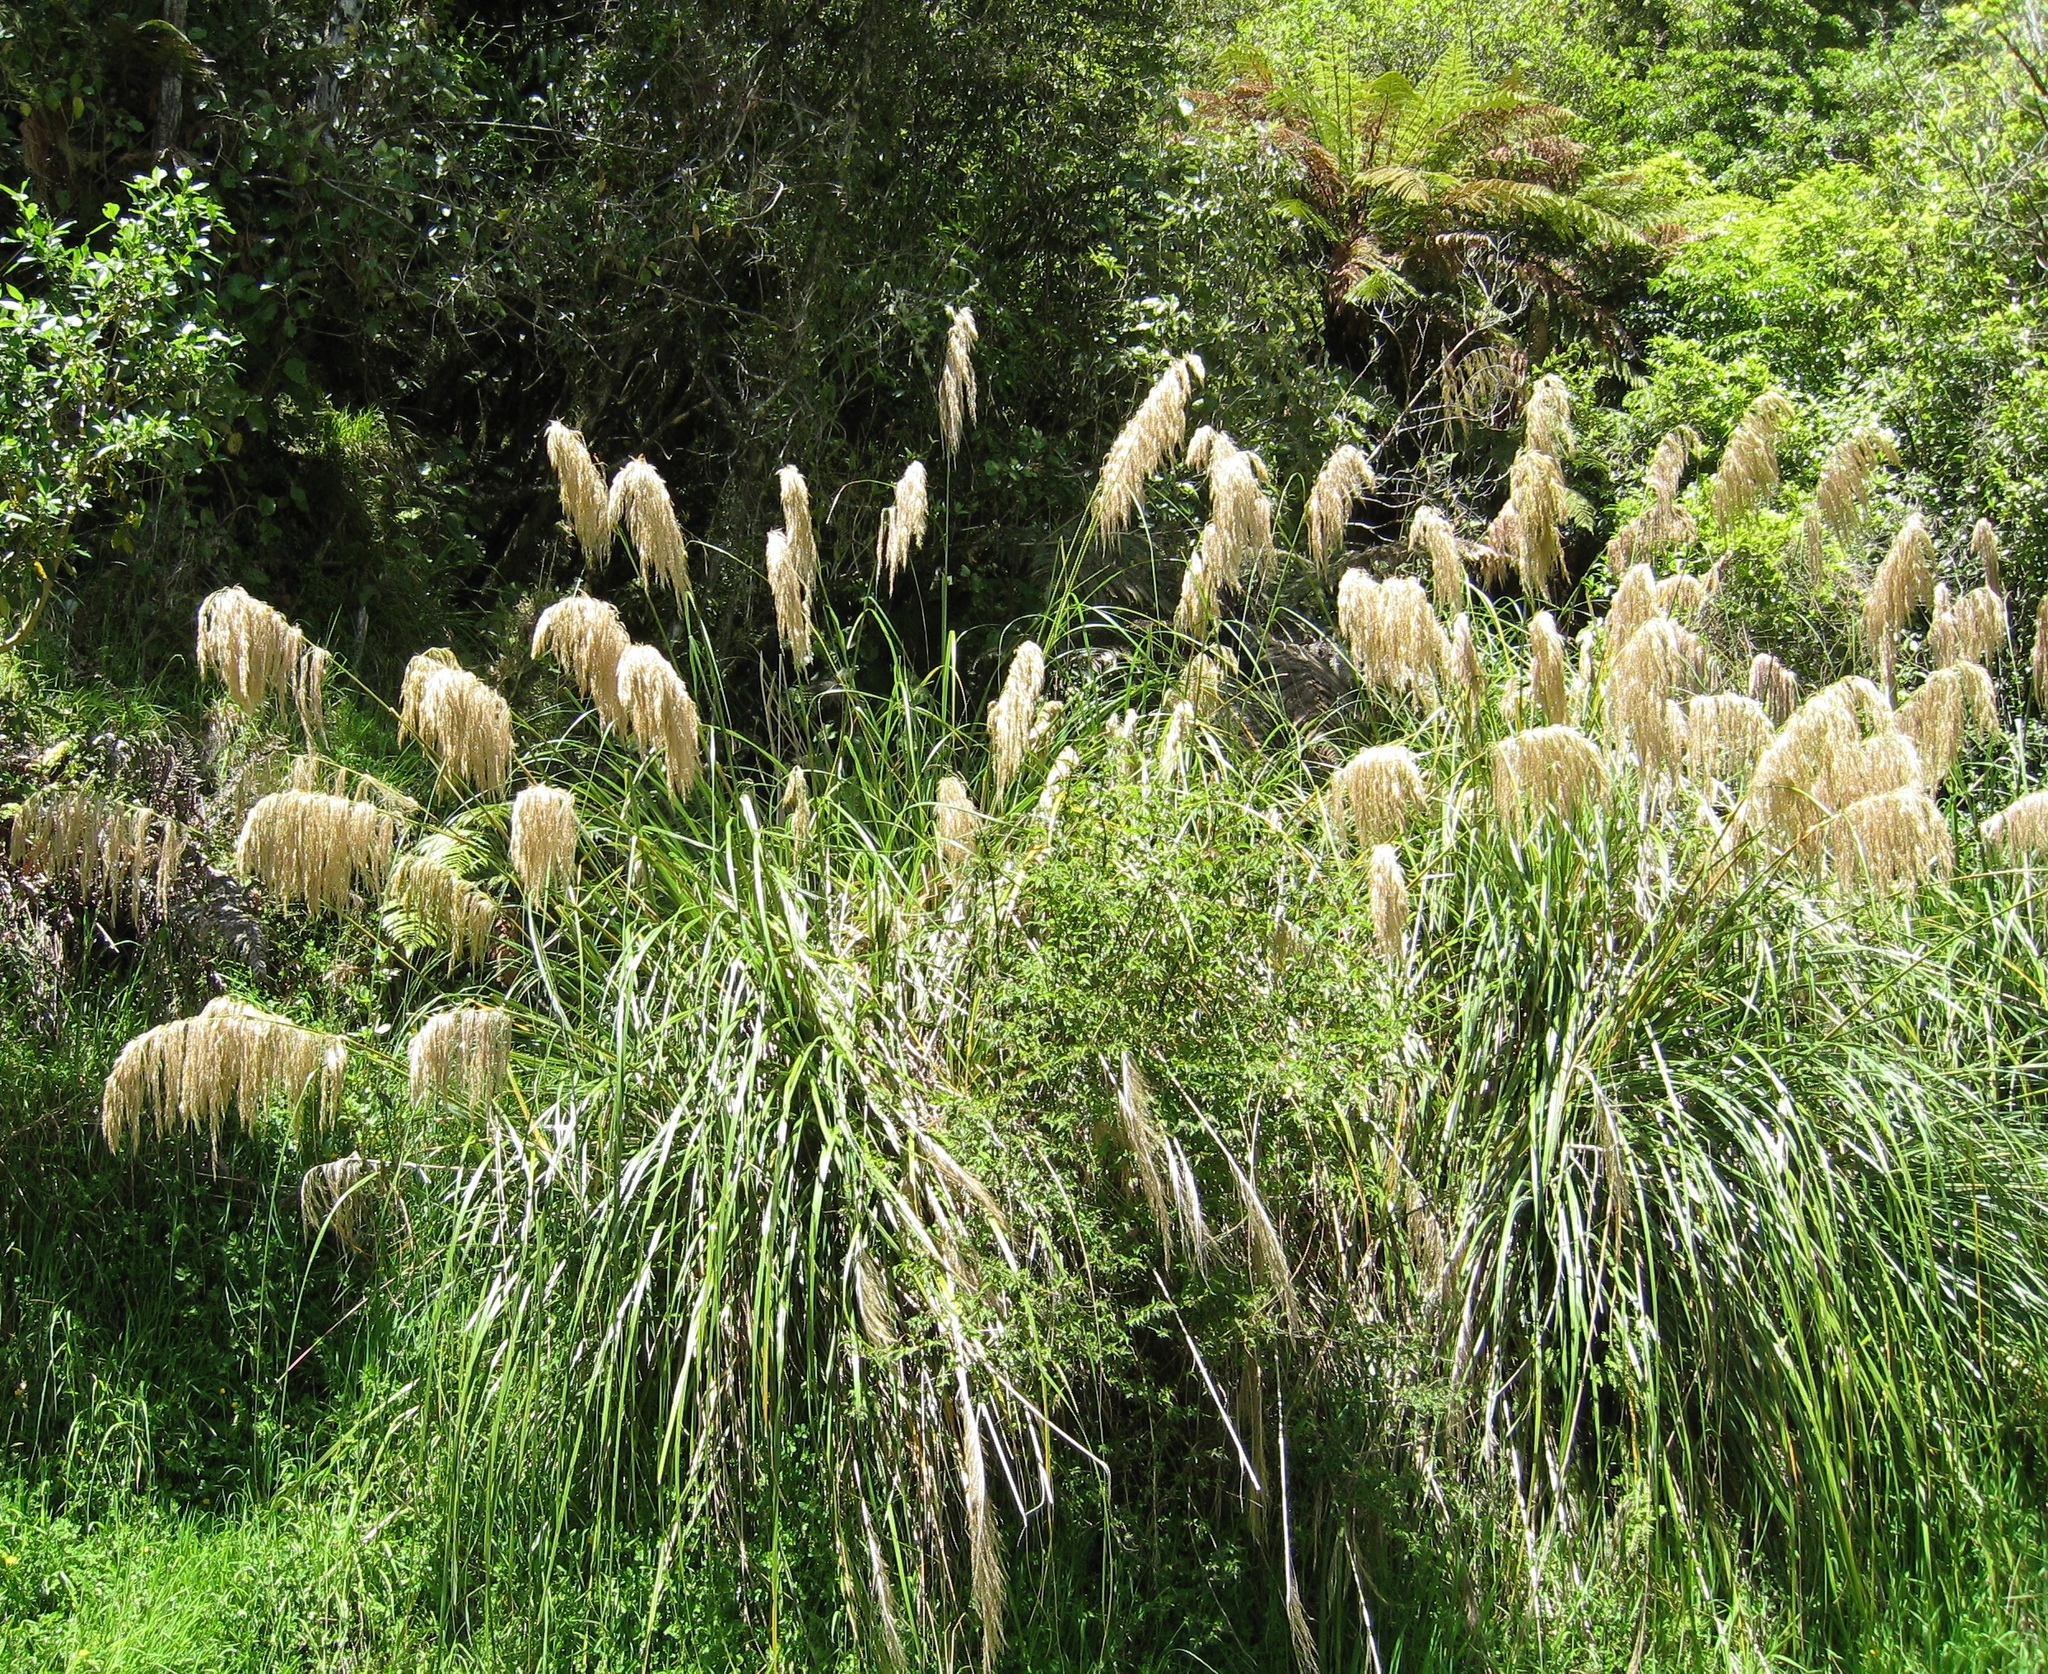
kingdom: Plantae
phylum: Tracheophyta
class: Liliopsida
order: Poales
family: Poaceae
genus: Austroderia
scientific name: Austroderia fulvida
